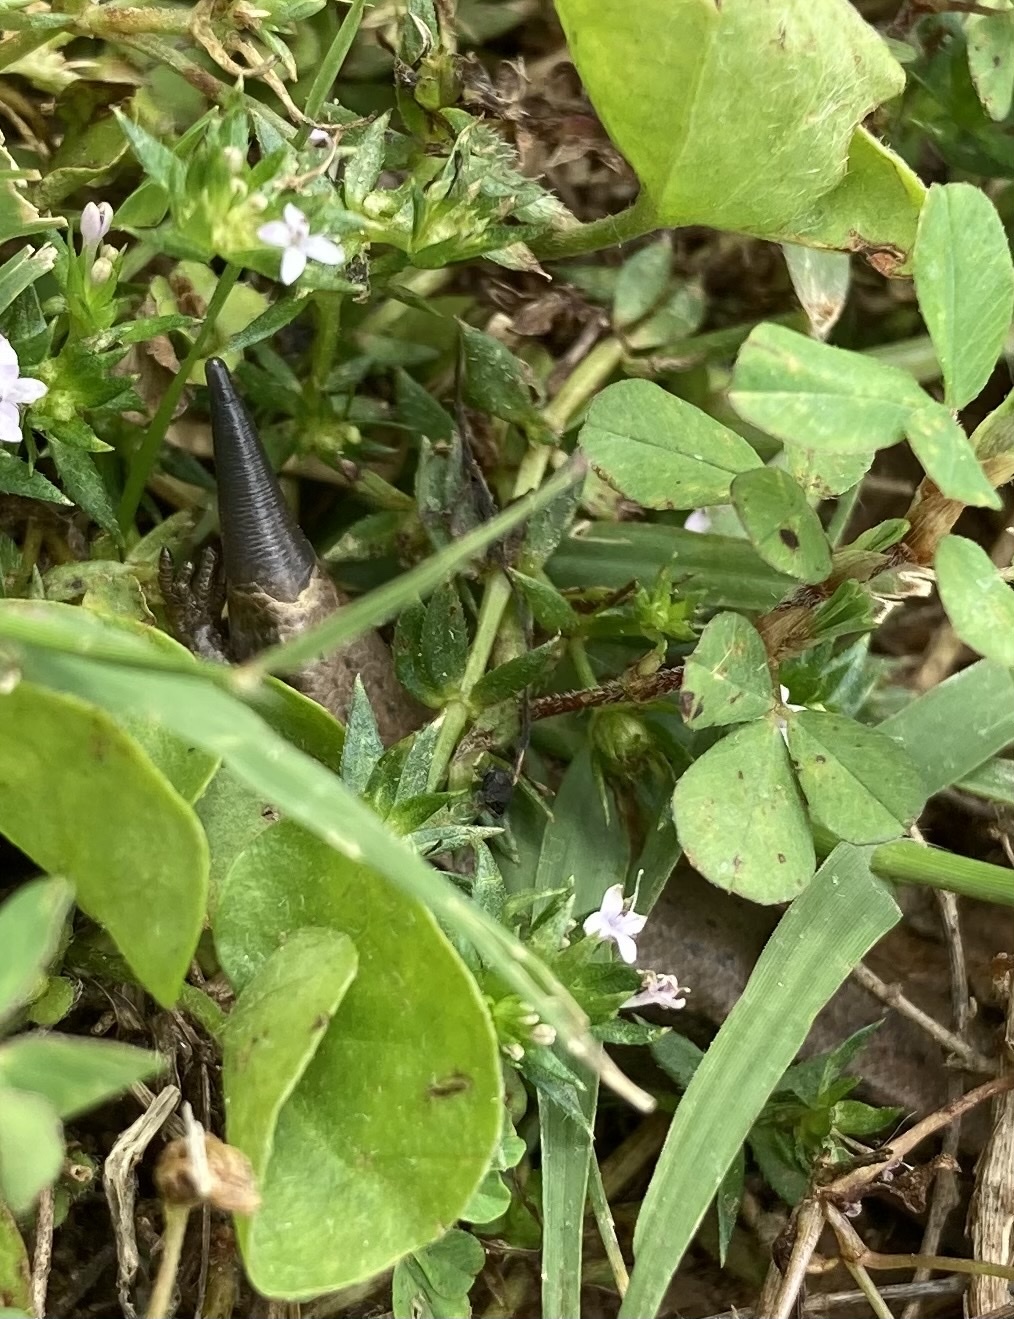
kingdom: Animalia
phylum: Chordata
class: Squamata
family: Scincidae
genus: Scincella
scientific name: Scincella lateralis
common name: Ground skink
